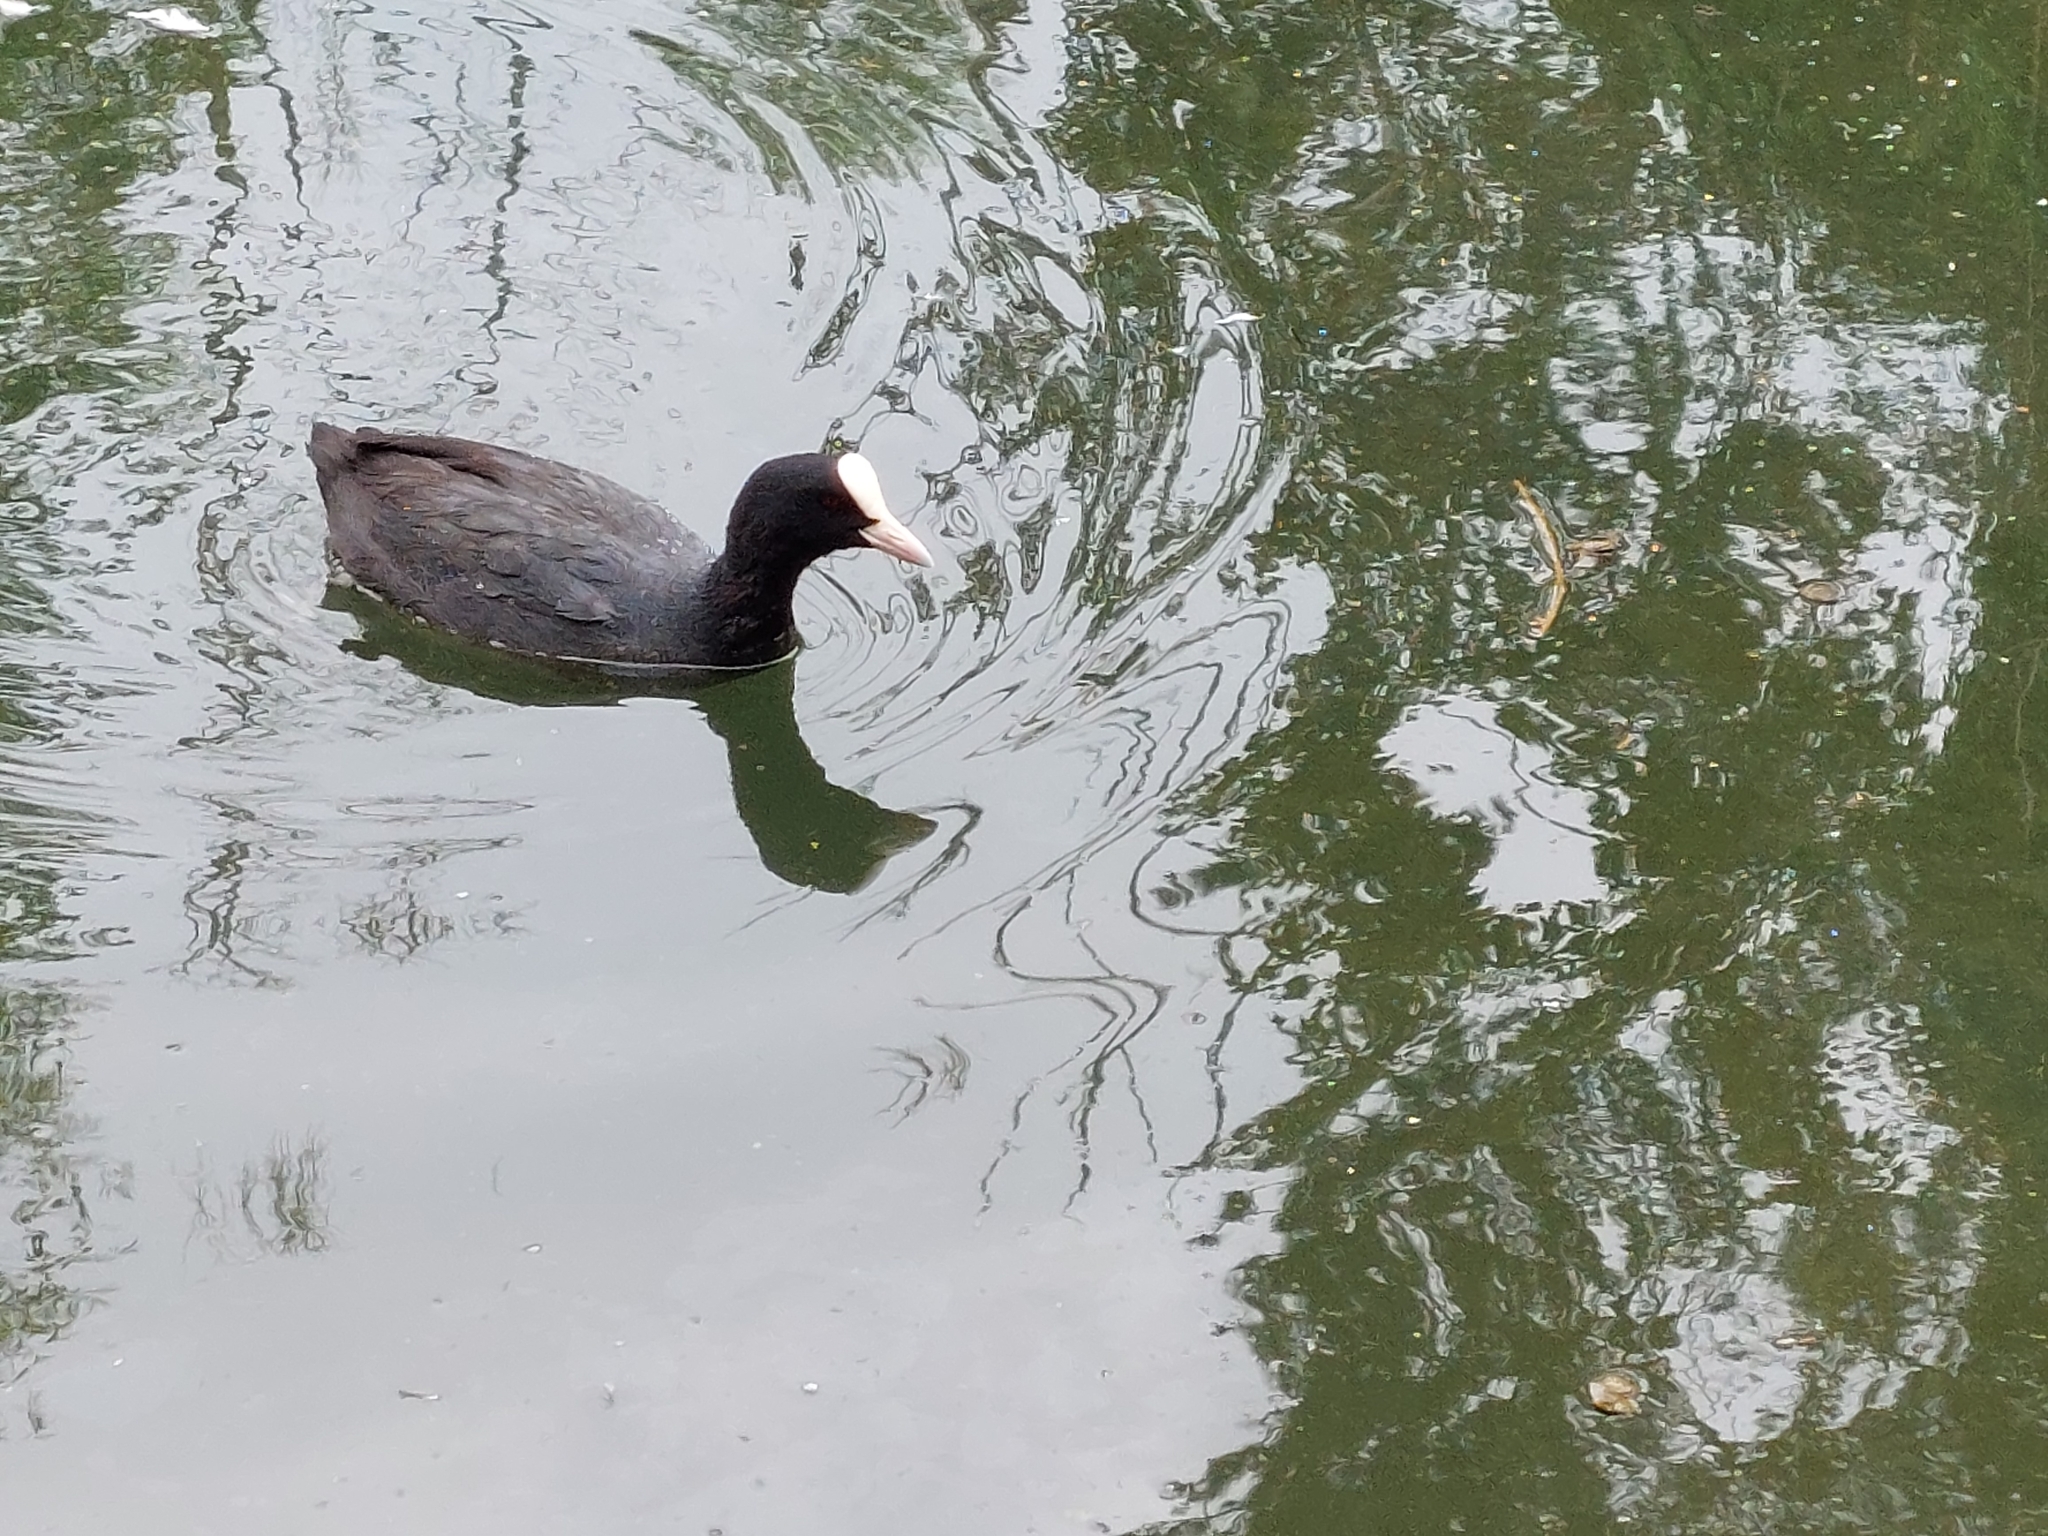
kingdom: Animalia
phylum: Chordata
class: Aves
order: Gruiformes
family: Rallidae
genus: Fulica
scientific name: Fulica atra
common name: Eurasian coot
